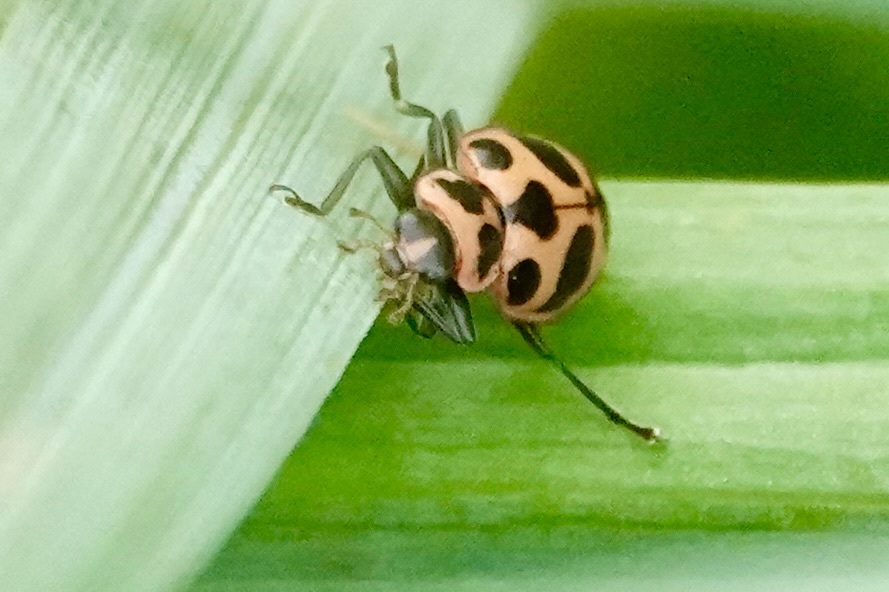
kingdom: Animalia
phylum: Arthropoda
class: Insecta
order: Coleoptera
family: Coccinellidae
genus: Coleomegilla
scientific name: Coleomegilla maculata
